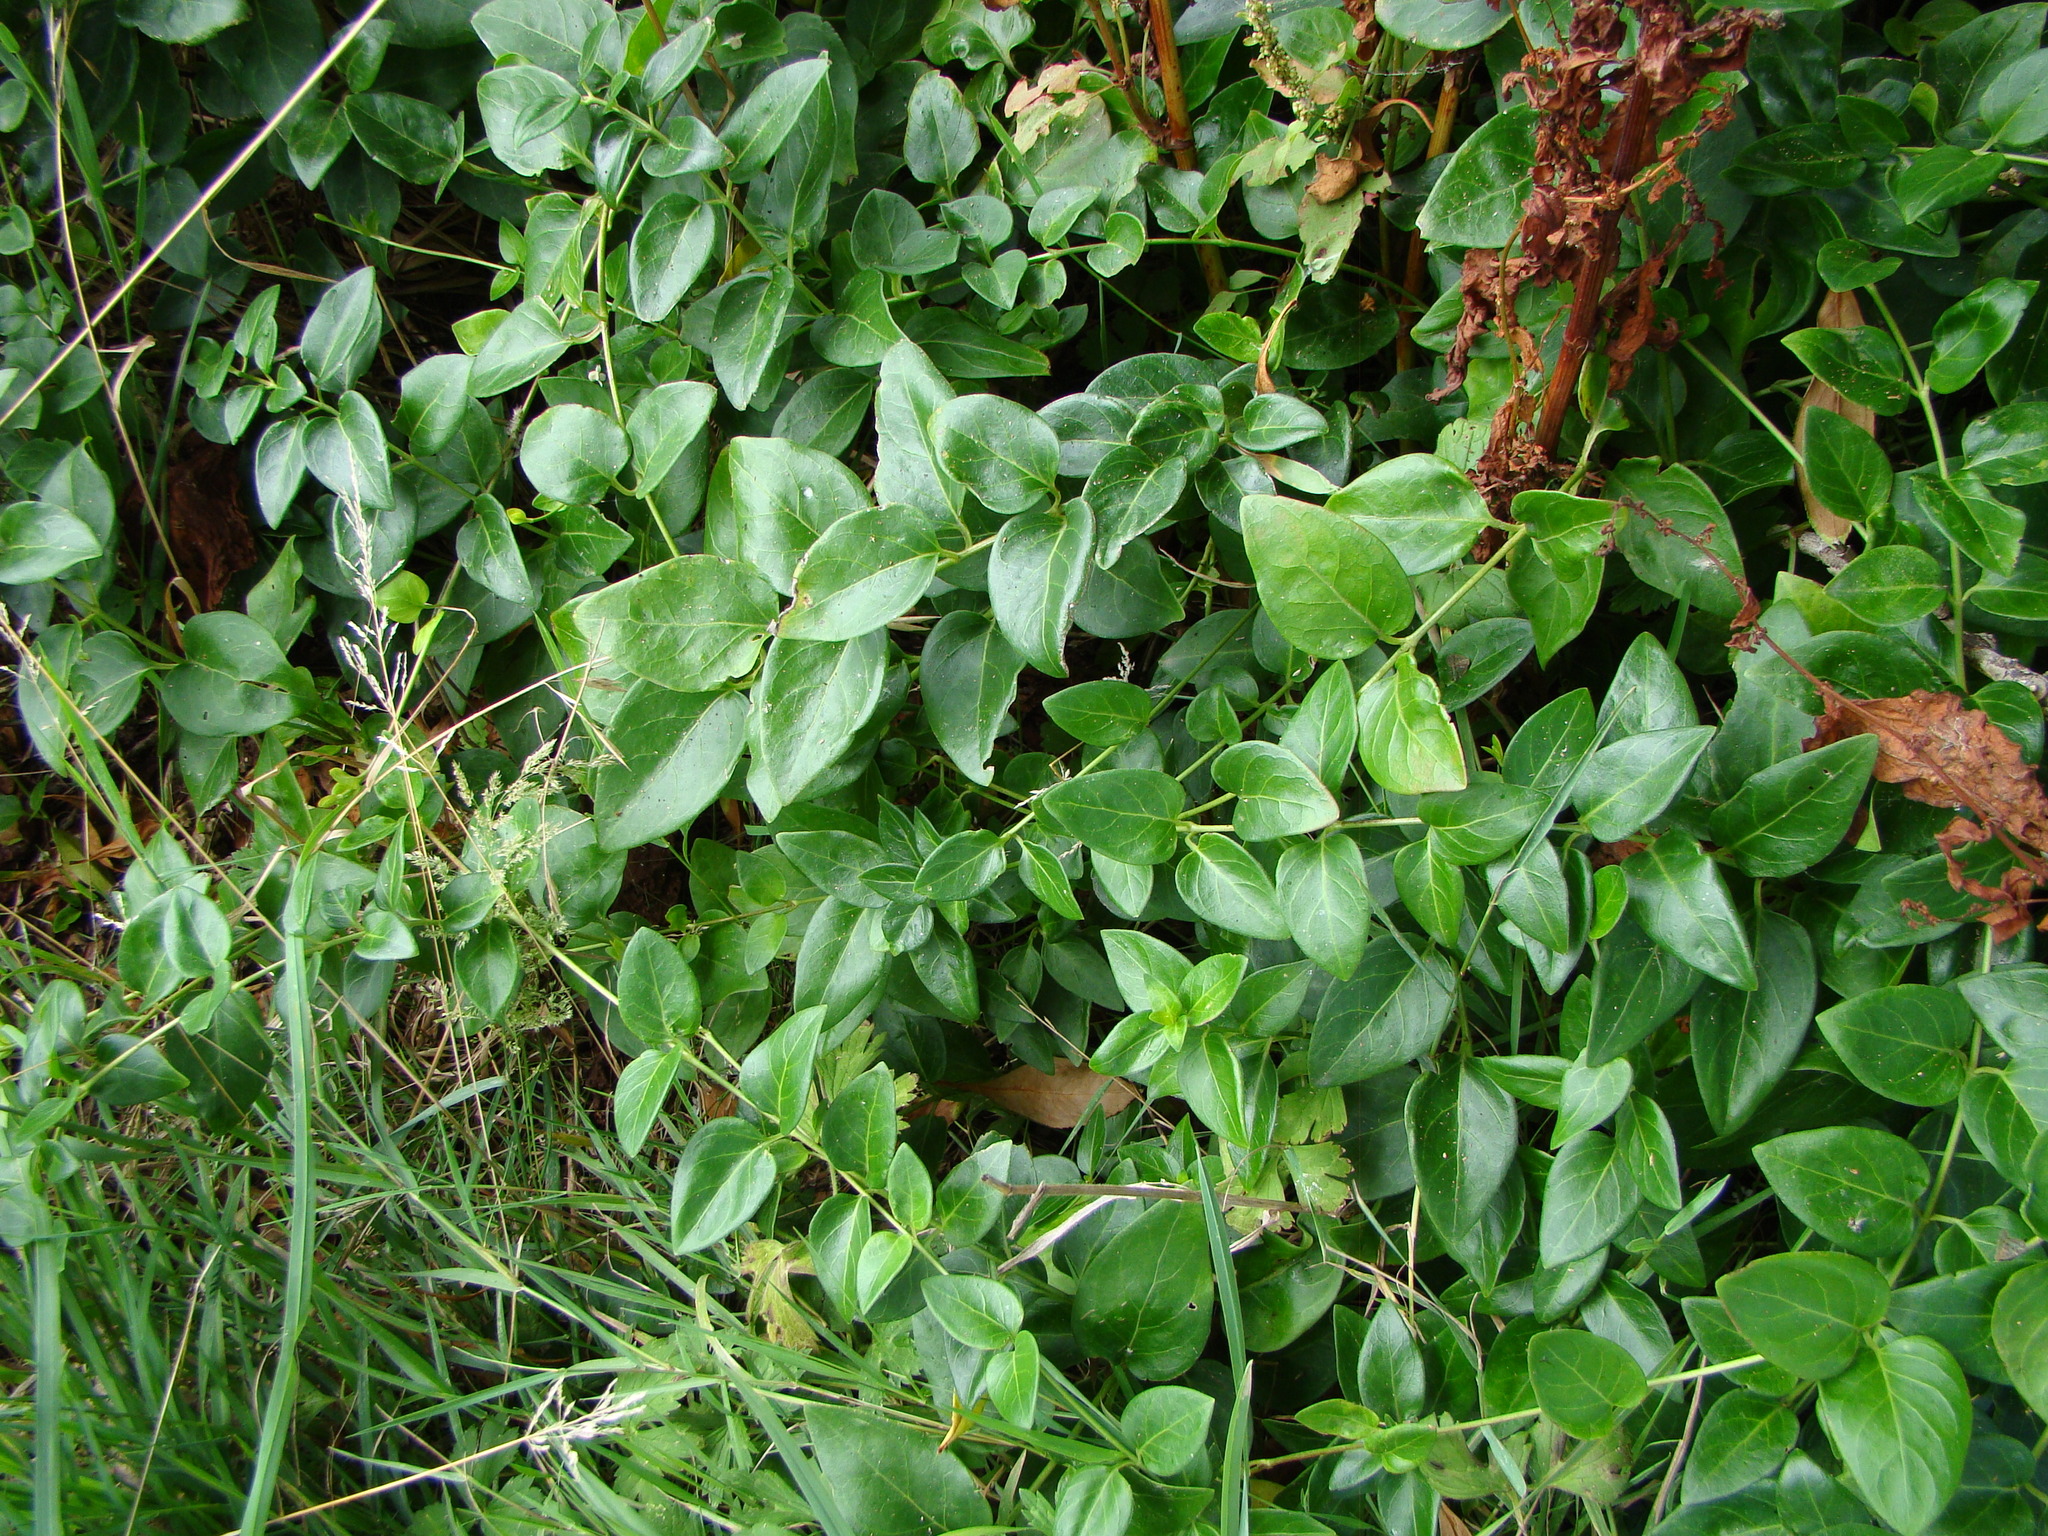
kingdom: Plantae
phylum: Tracheophyta
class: Magnoliopsida
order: Gentianales
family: Apocynaceae
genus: Vinca
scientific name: Vinca major
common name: Greater periwinkle
